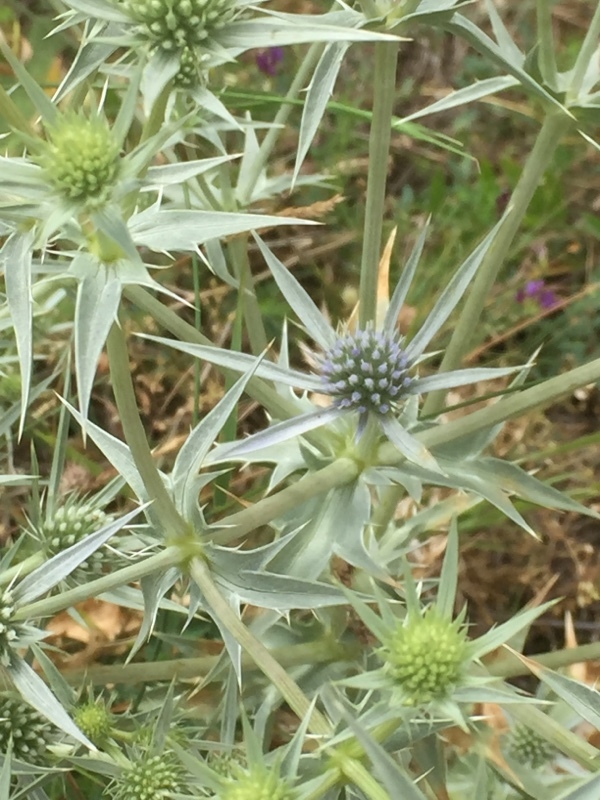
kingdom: Plantae
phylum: Tracheophyta
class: Magnoliopsida
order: Apiales
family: Apiaceae
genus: Eryngium
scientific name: Eryngium campestre
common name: Field eryngo
